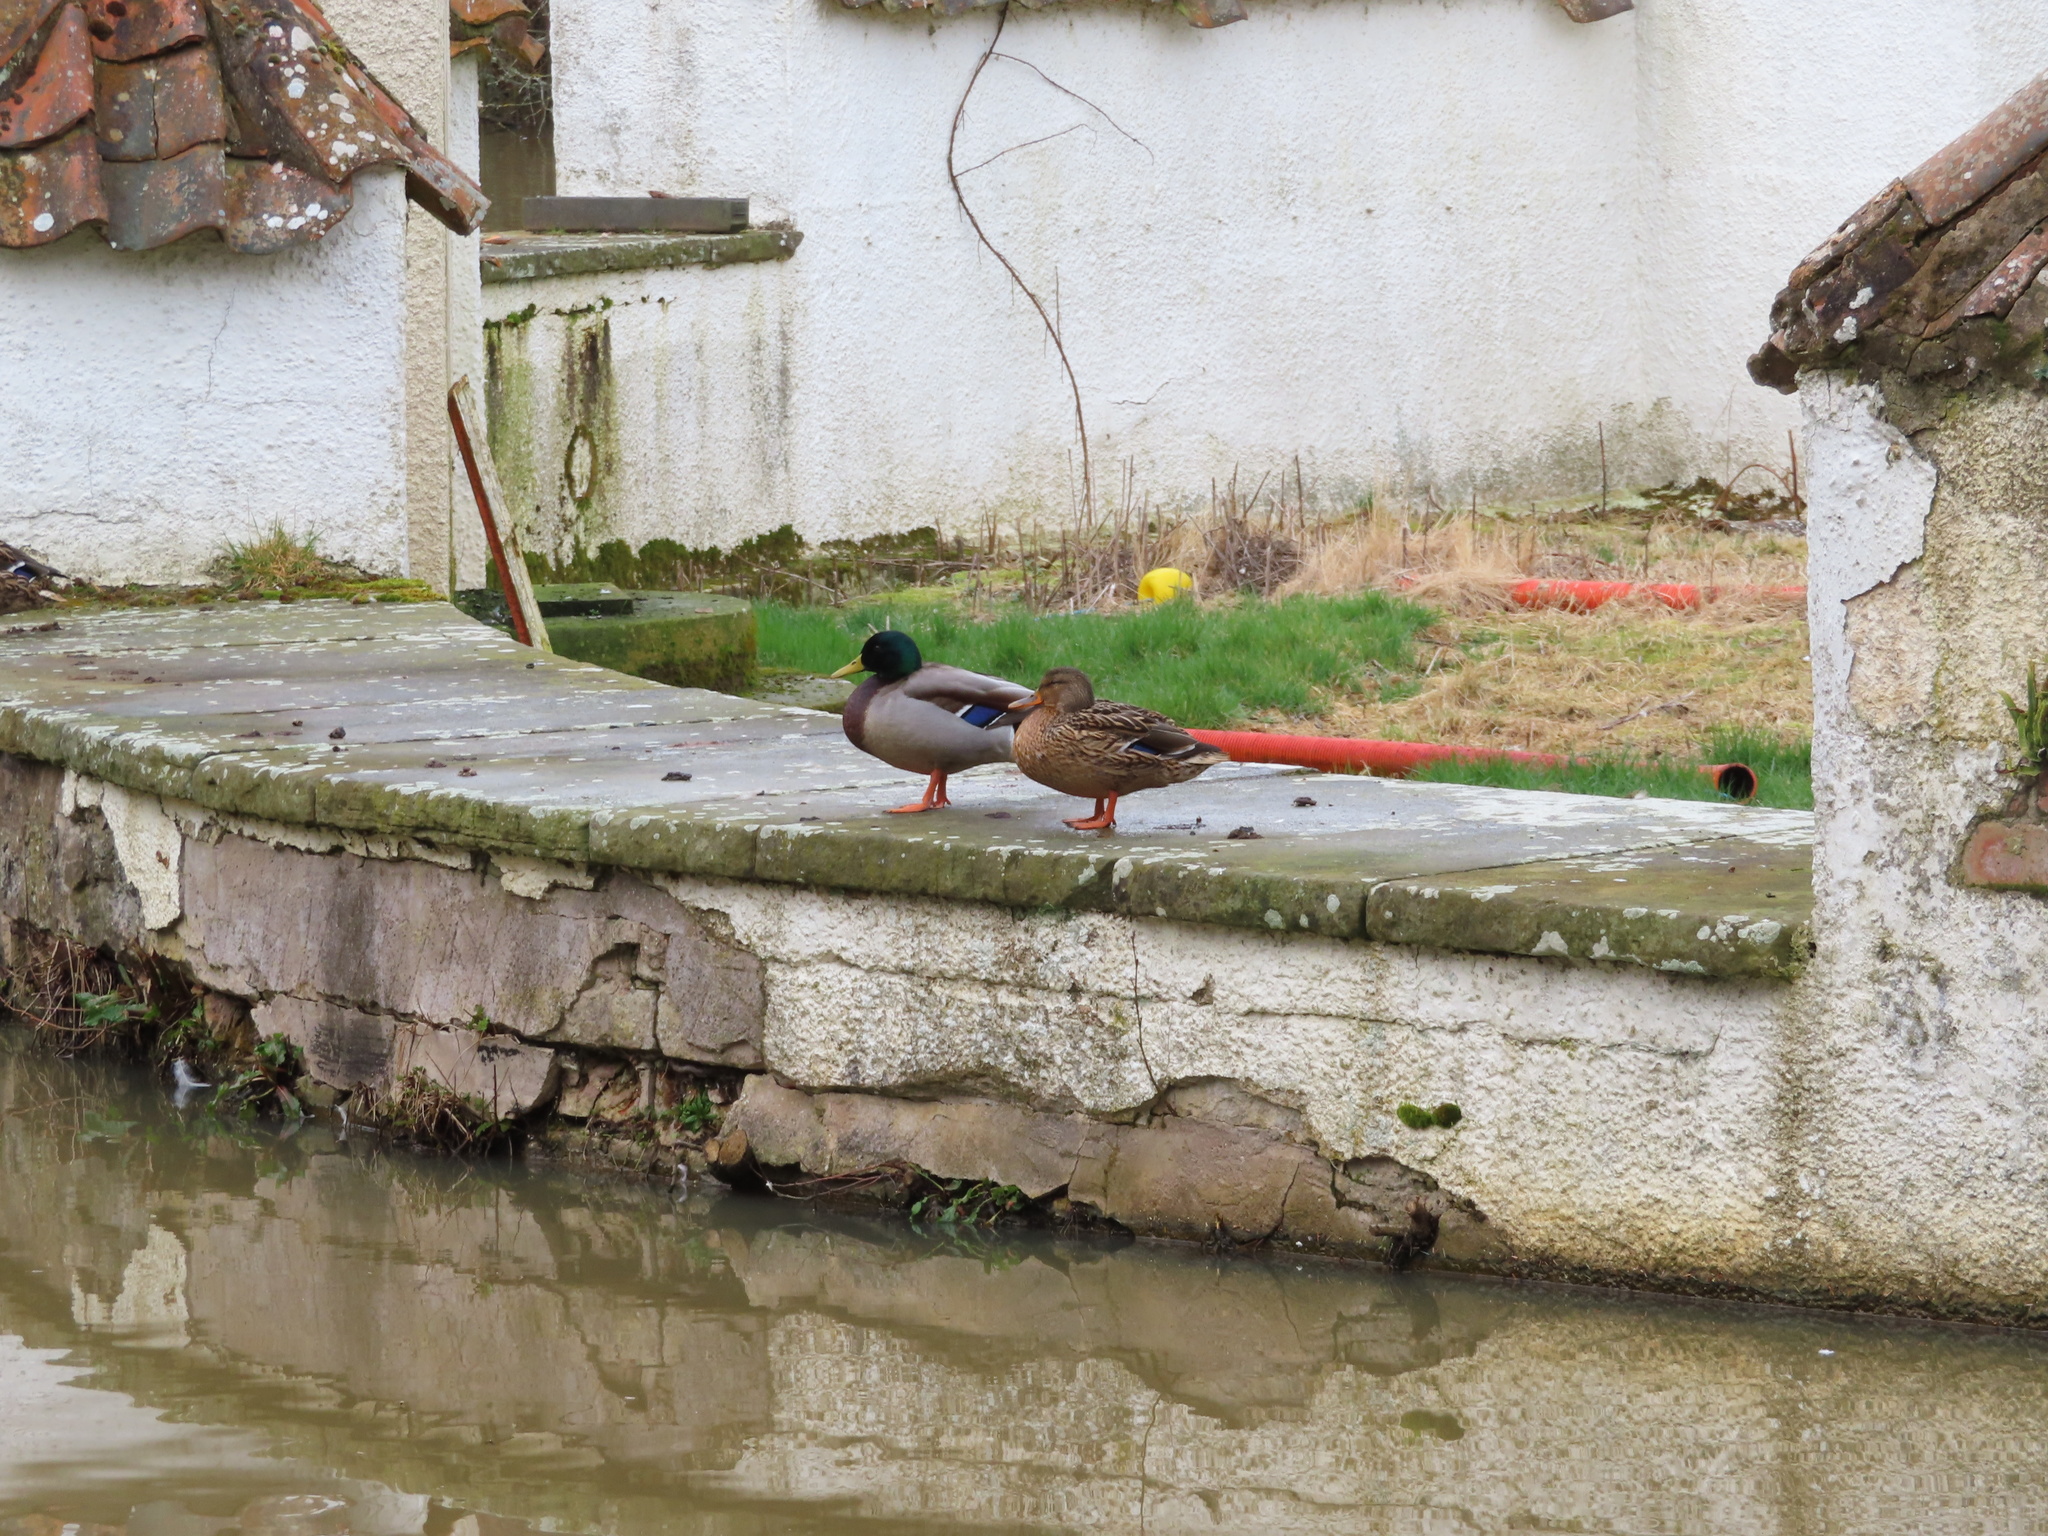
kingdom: Animalia
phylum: Chordata
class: Aves
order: Anseriformes
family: Anatidae
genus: Anas
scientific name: Anas platyrhynchos
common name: Mallard
